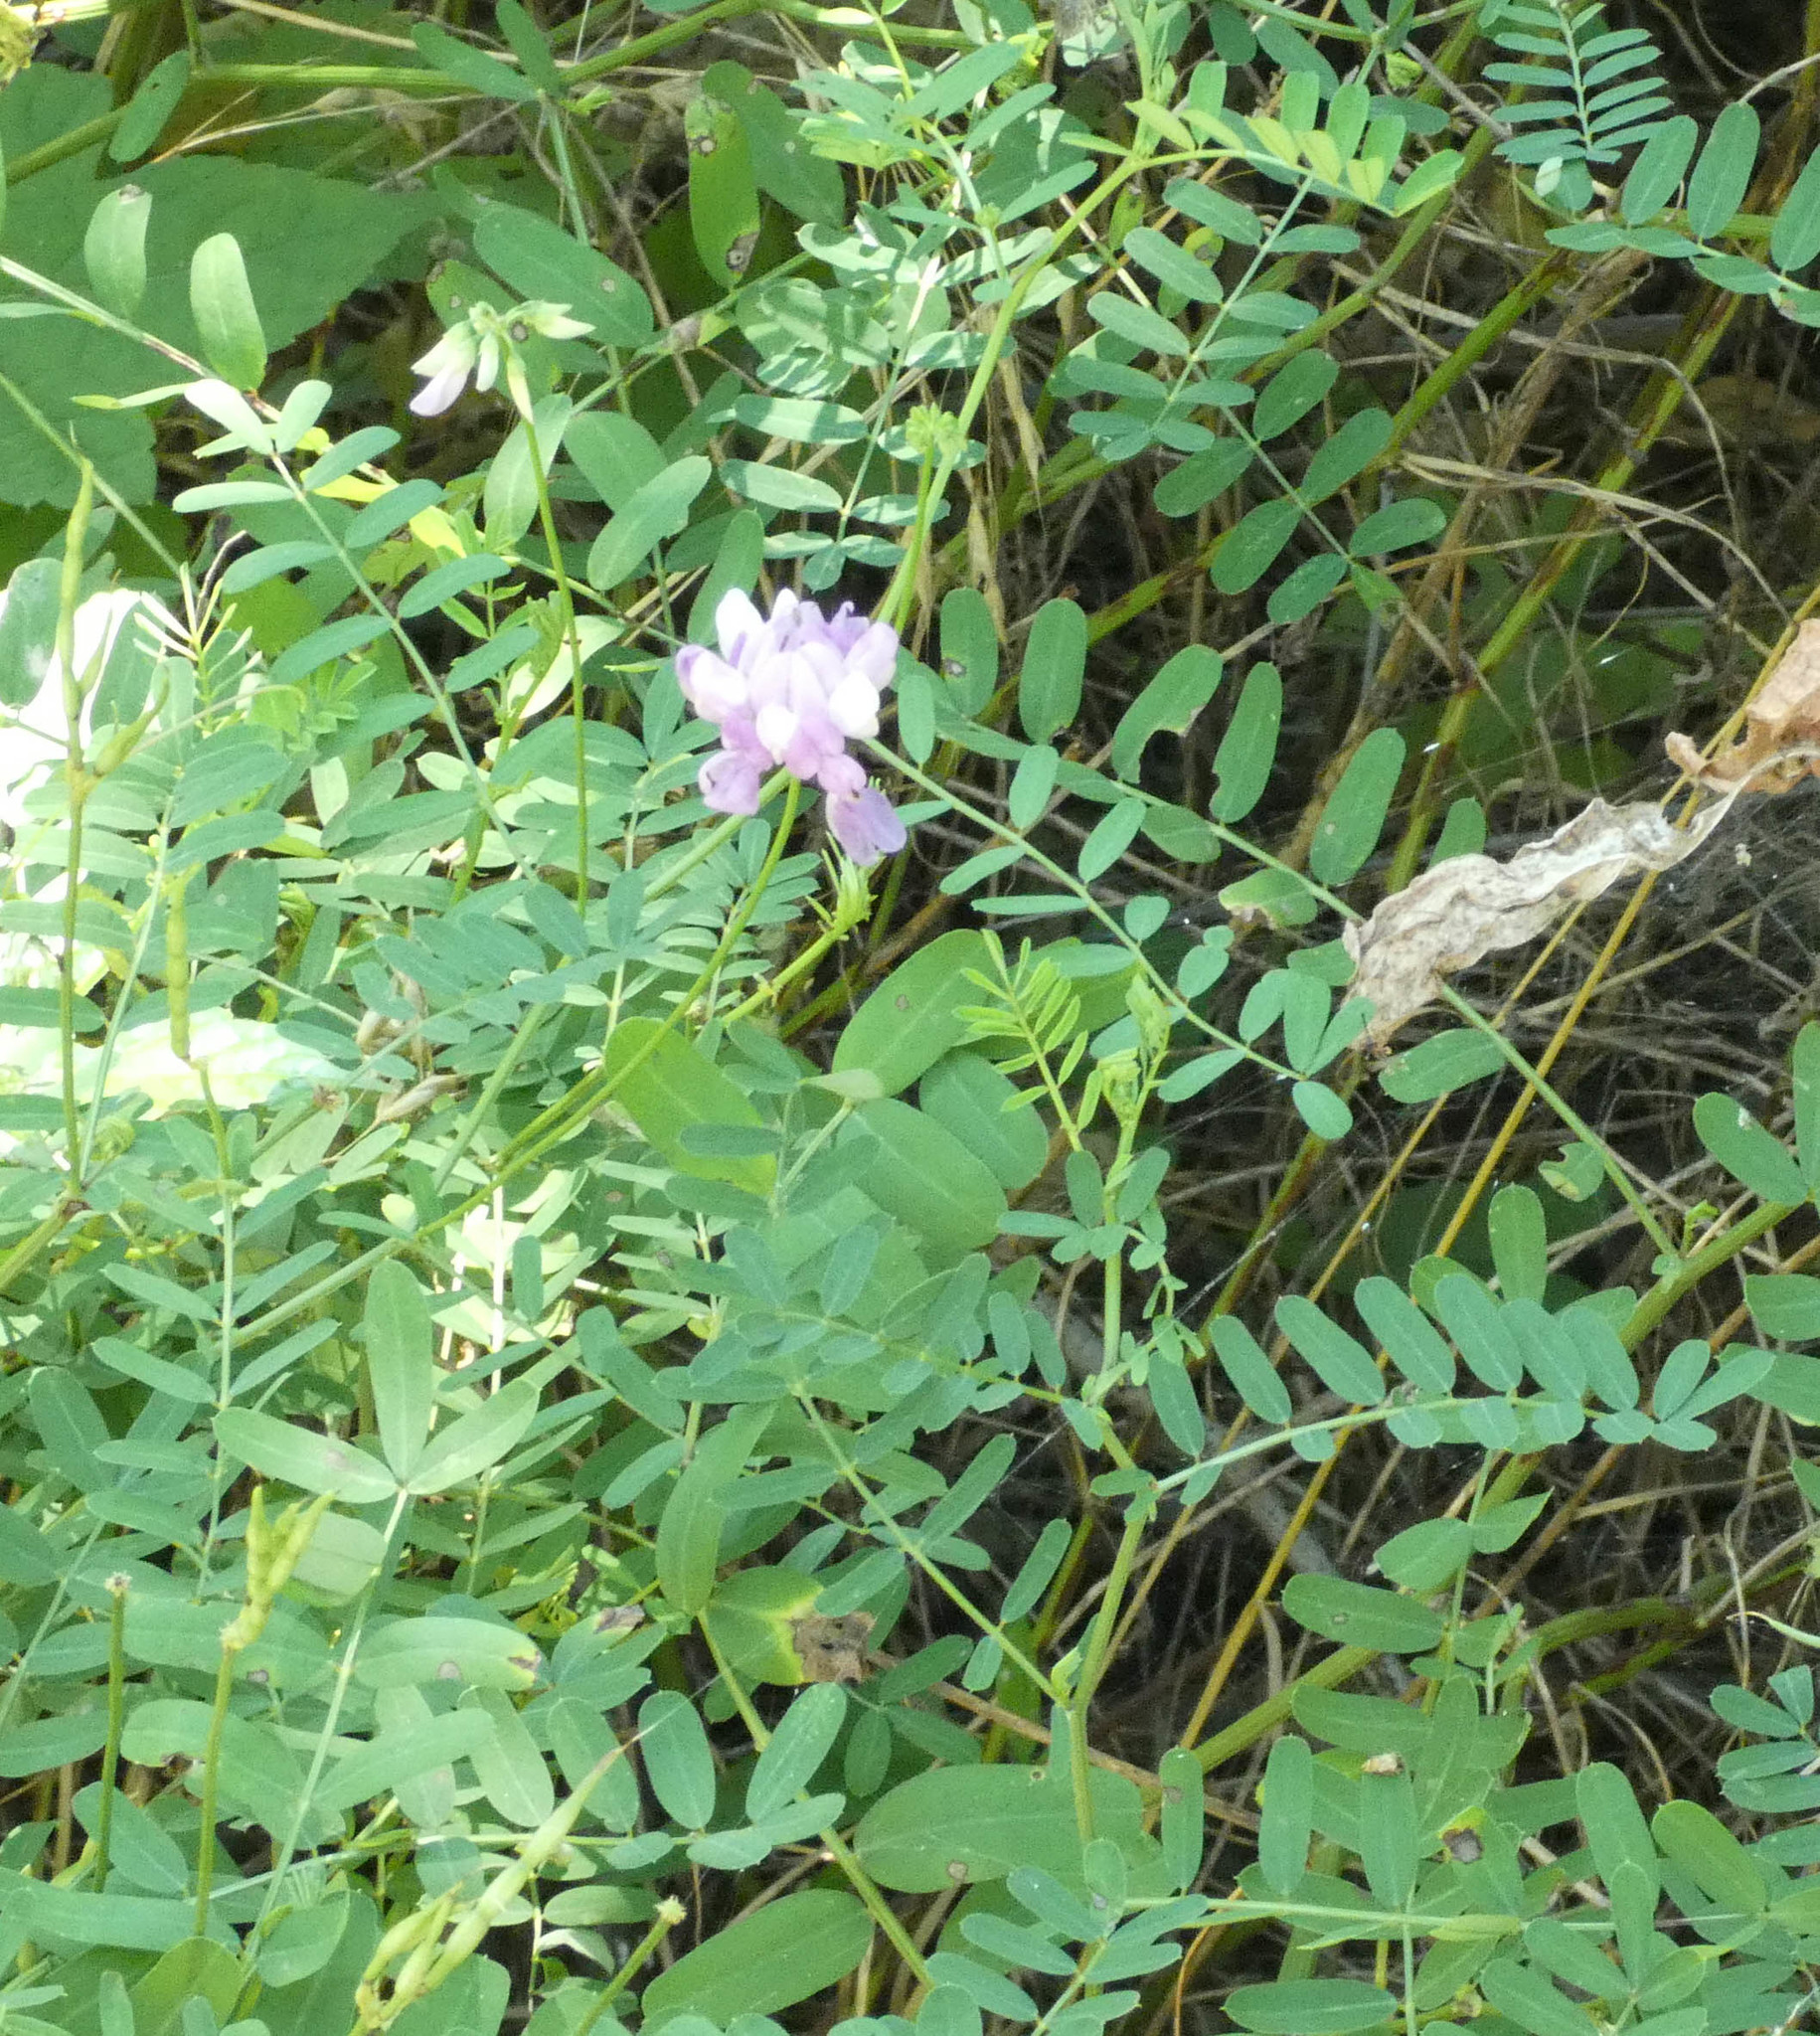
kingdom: Plantae
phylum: Tracheophyta
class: Magnoliopsida
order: Fabales
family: Fabaceae
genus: Coronilla
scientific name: Coronilla varia
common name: Crownvetch
